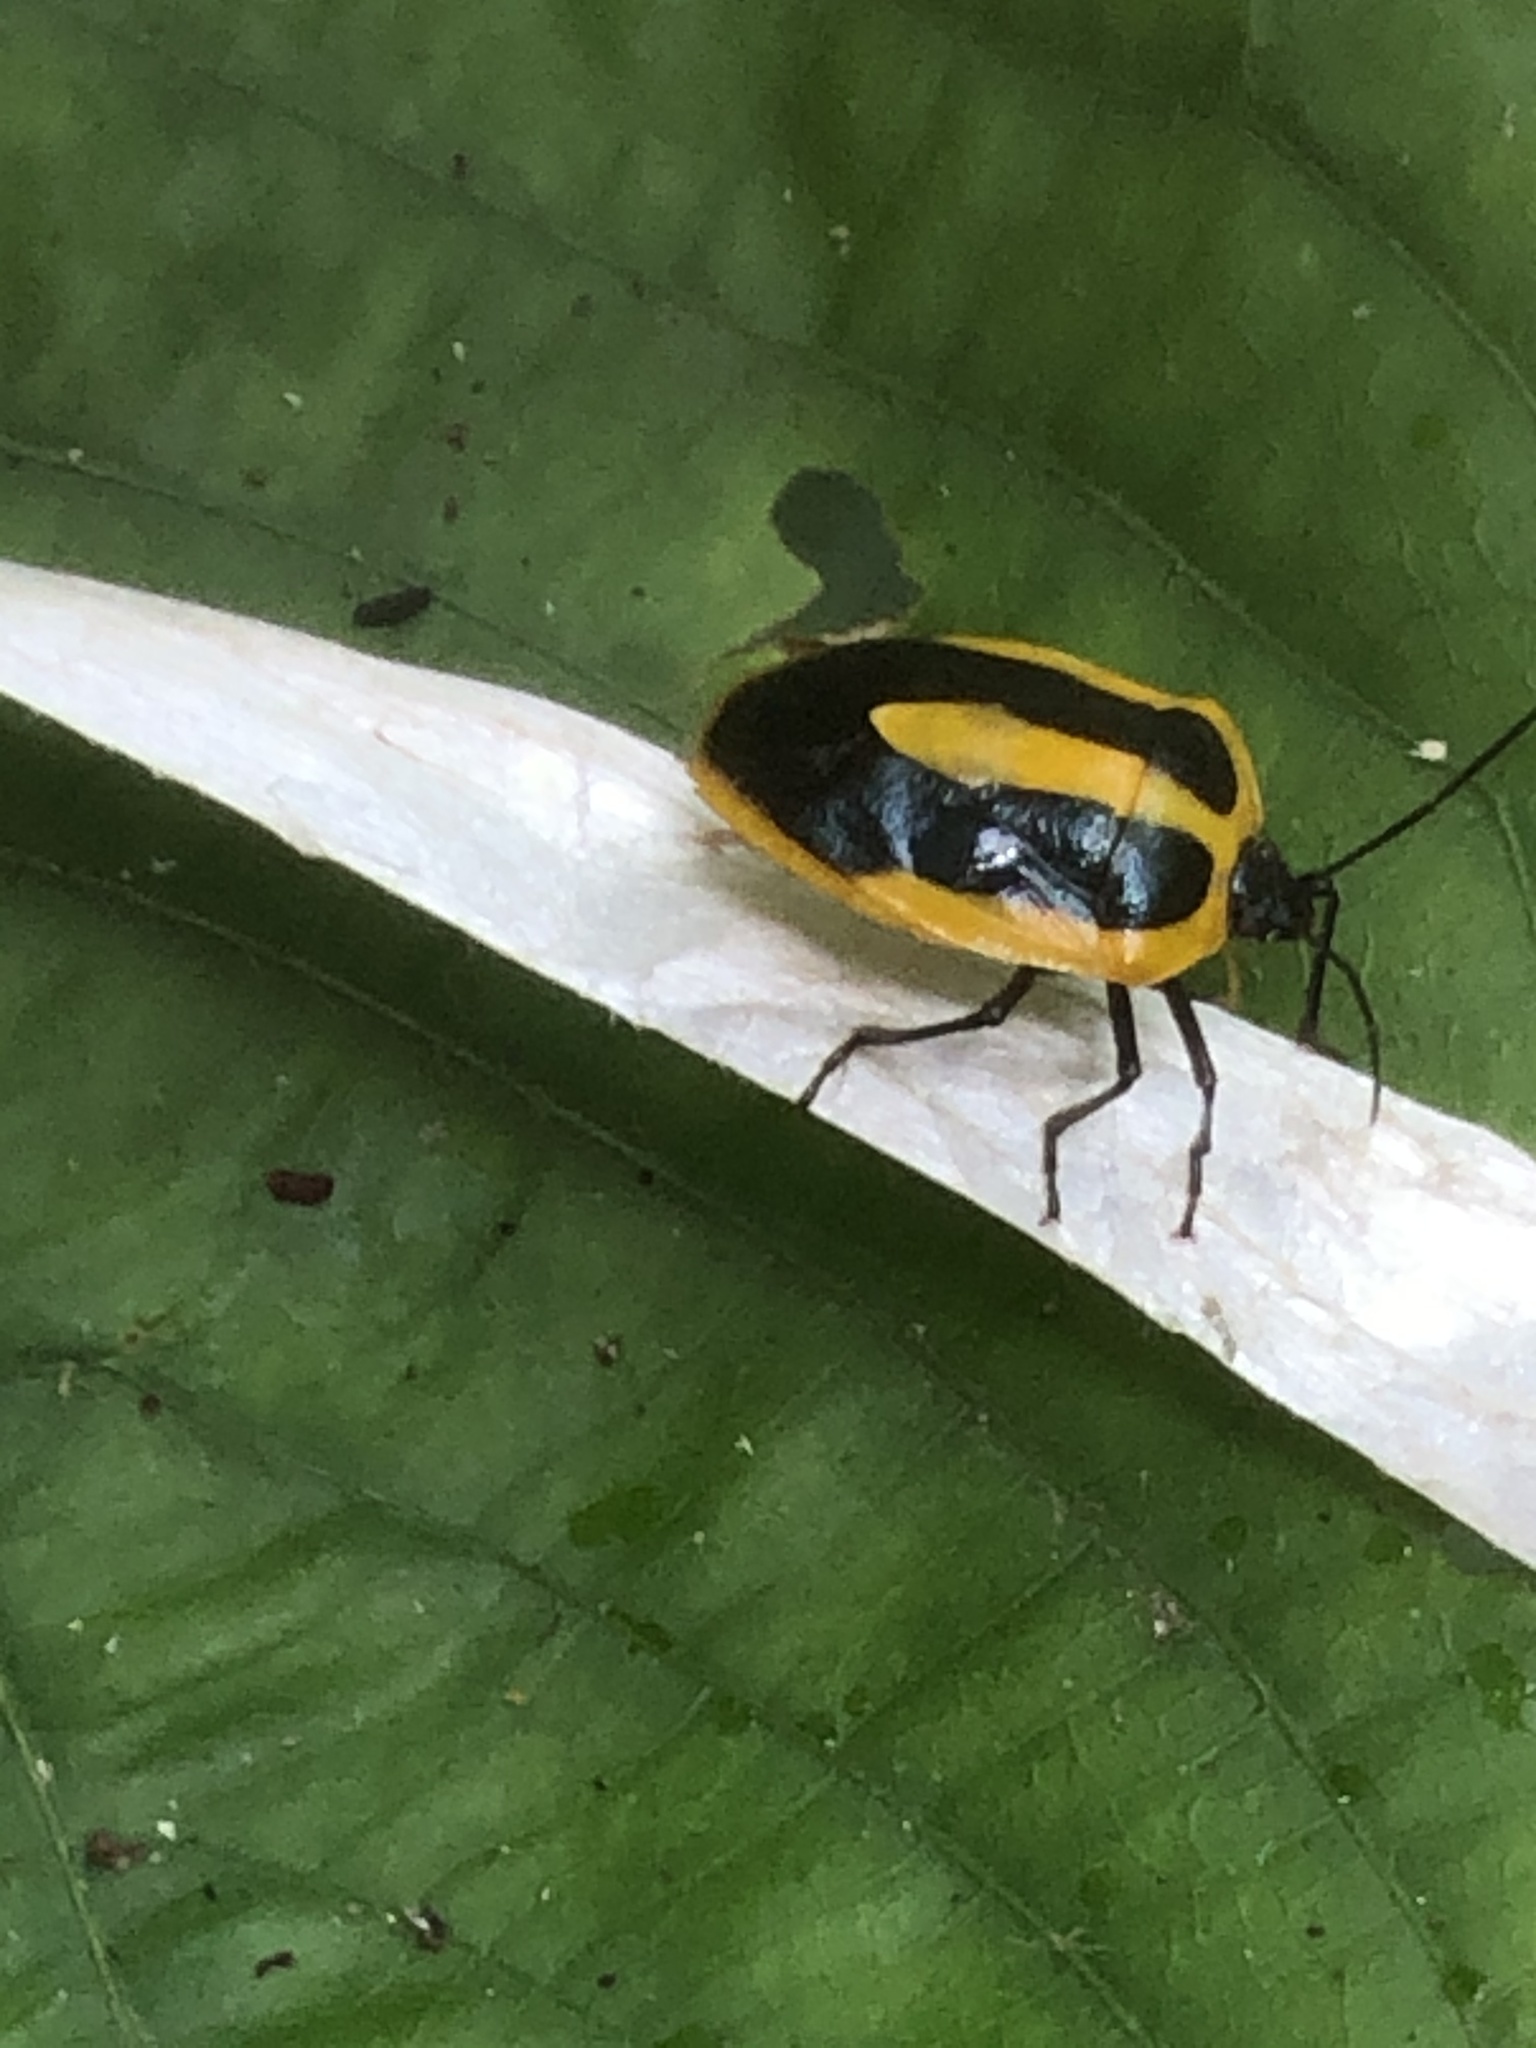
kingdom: Animalia
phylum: Arthropoda
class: Insecta
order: Hemiptera
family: Pentatomidae
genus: Arocera
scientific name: Arocera aequinoxialis
